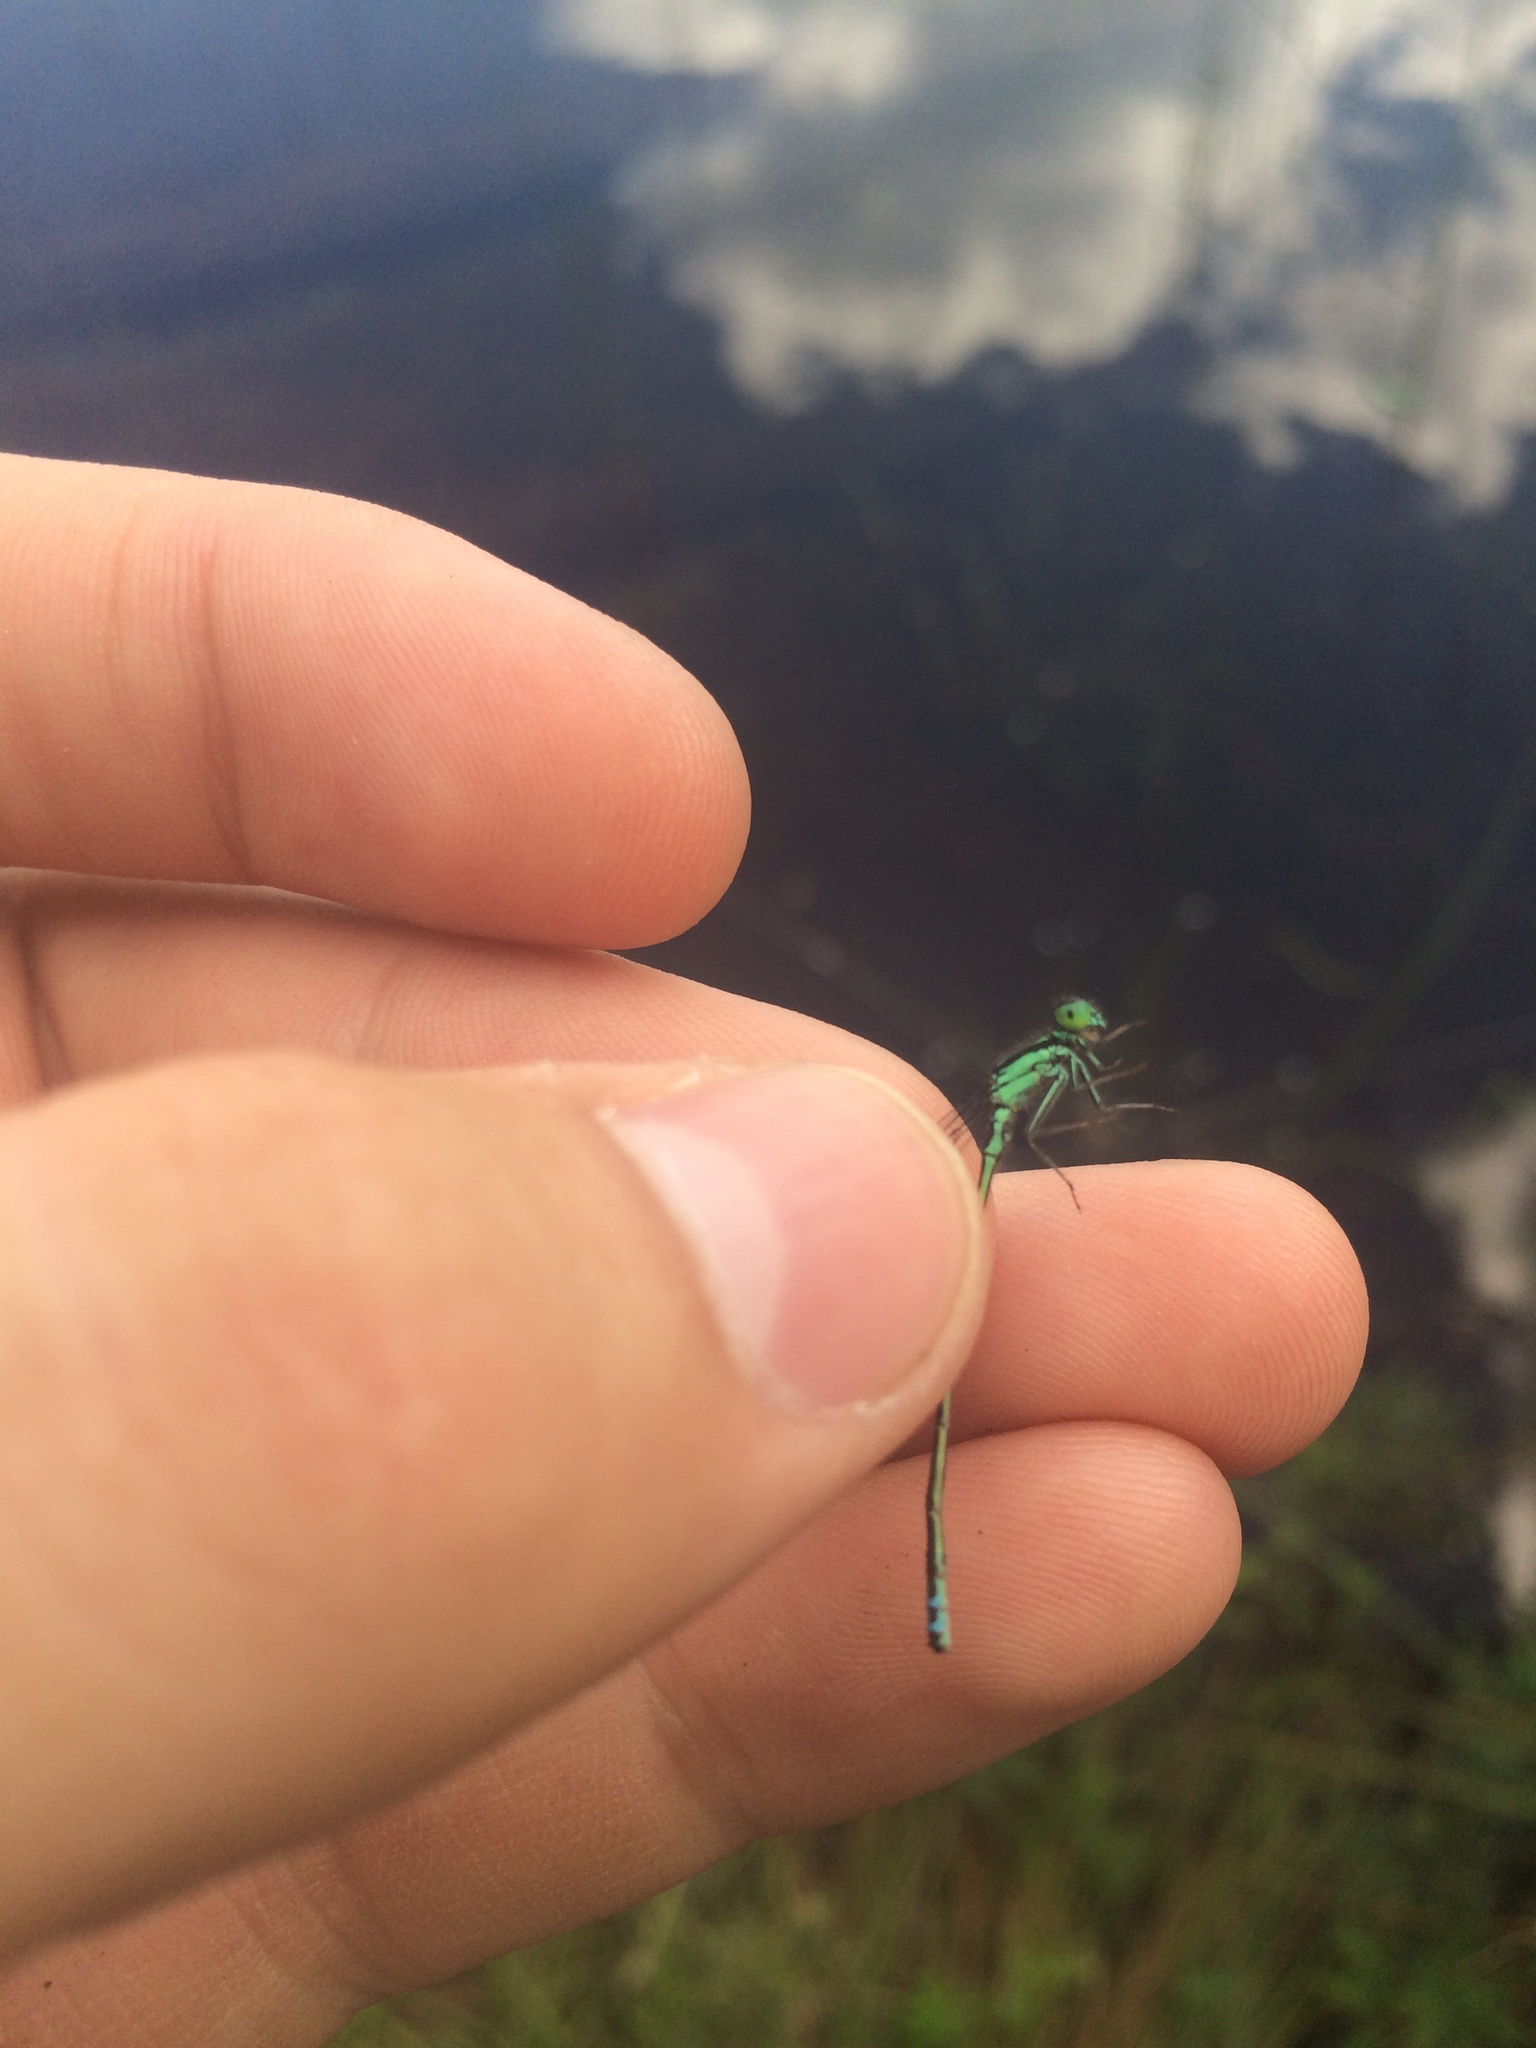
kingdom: Animalia
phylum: Arthropoda
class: Insecta
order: Odonata
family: Coenagrionidae
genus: Ischnura
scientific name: Ischnura verticalis
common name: Eastern forktail
